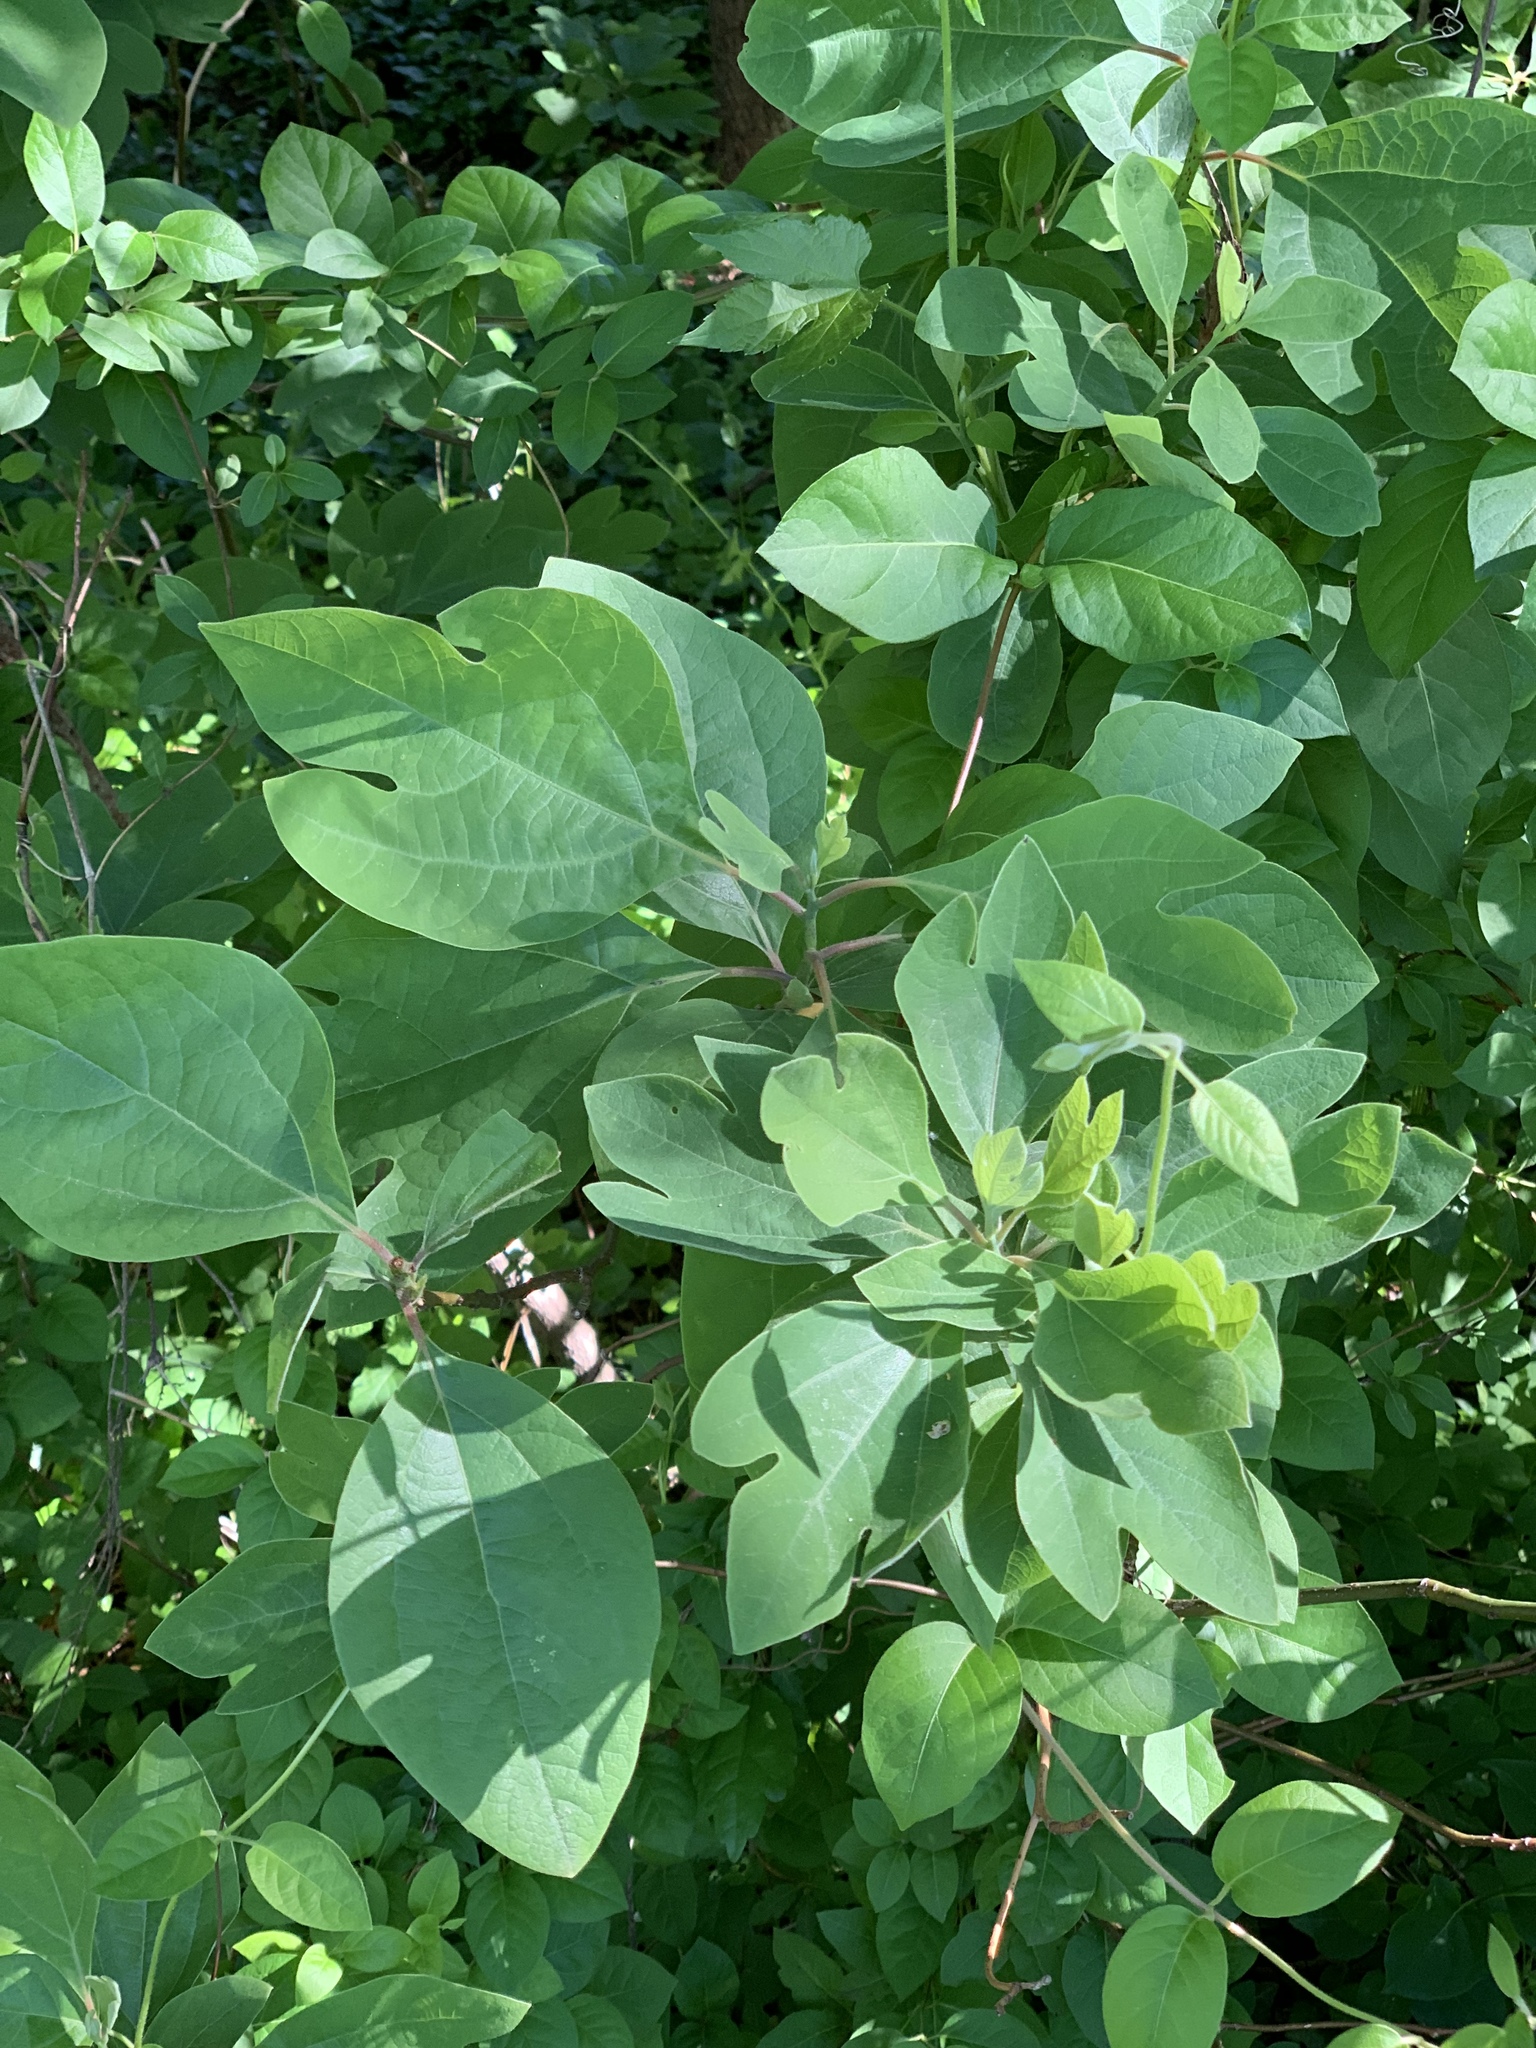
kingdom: Plantae
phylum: Tracheophyta
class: Magnoliopsida
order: Laurales
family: Lauraceae
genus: Sassafras
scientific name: Sassafras albidum
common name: Sassafras
